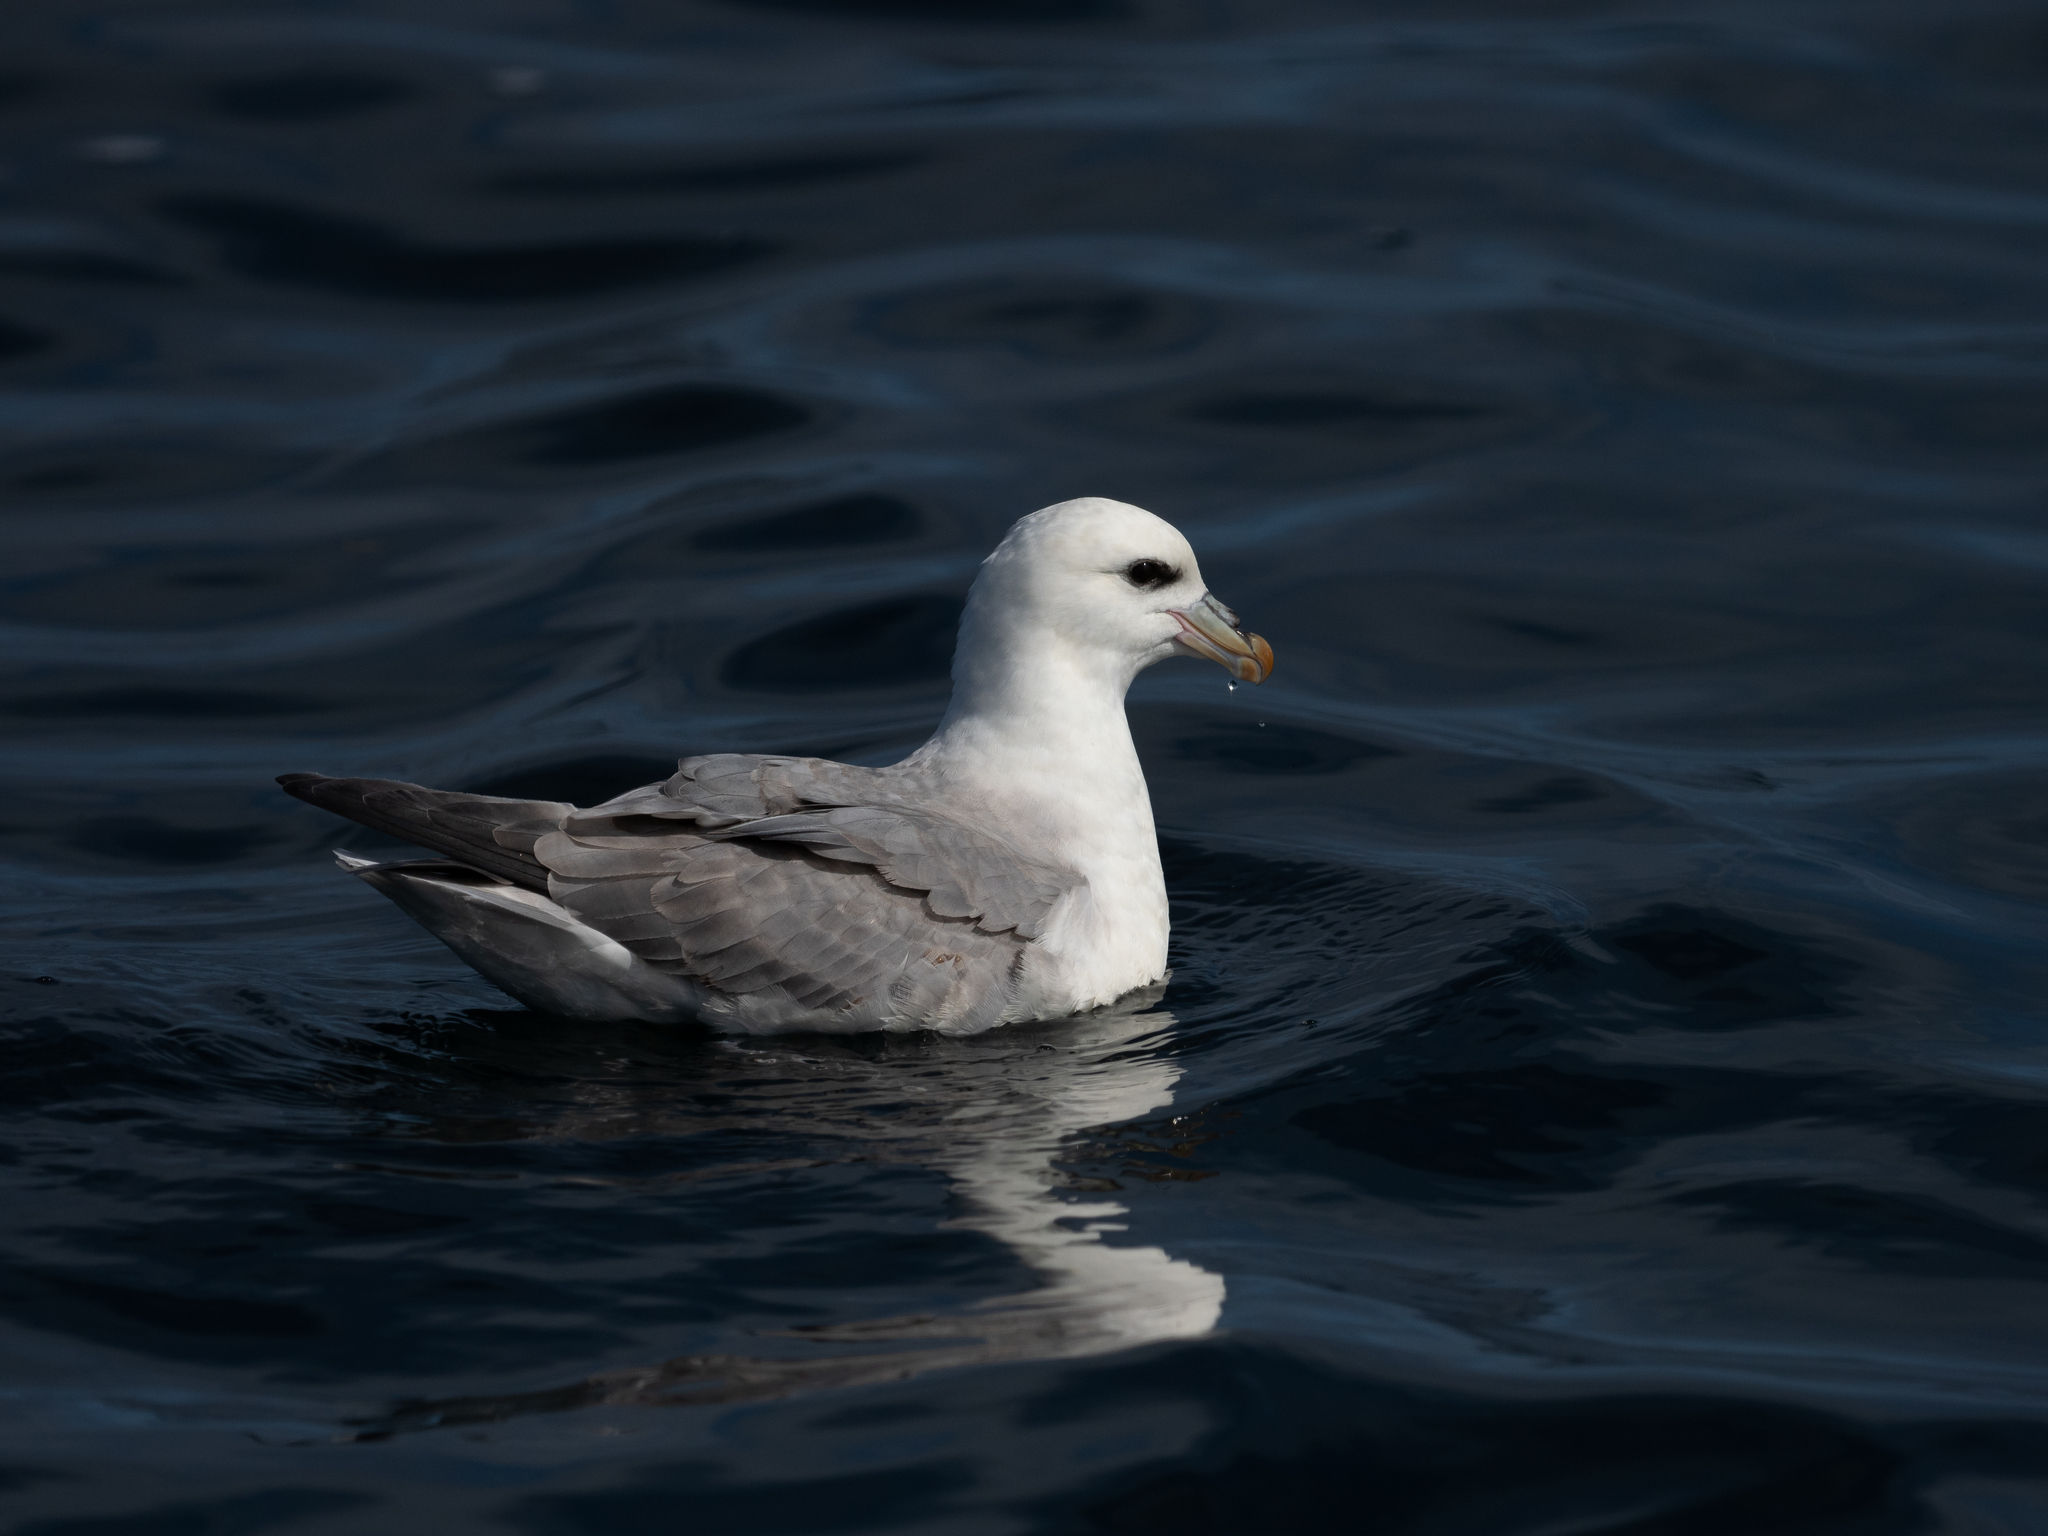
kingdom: Animalia
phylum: Chordata
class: Aves
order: Procellariiformes
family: Procellariidae
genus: Fulmarus
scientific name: Fulmarus glacialis
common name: Northern fulmar
